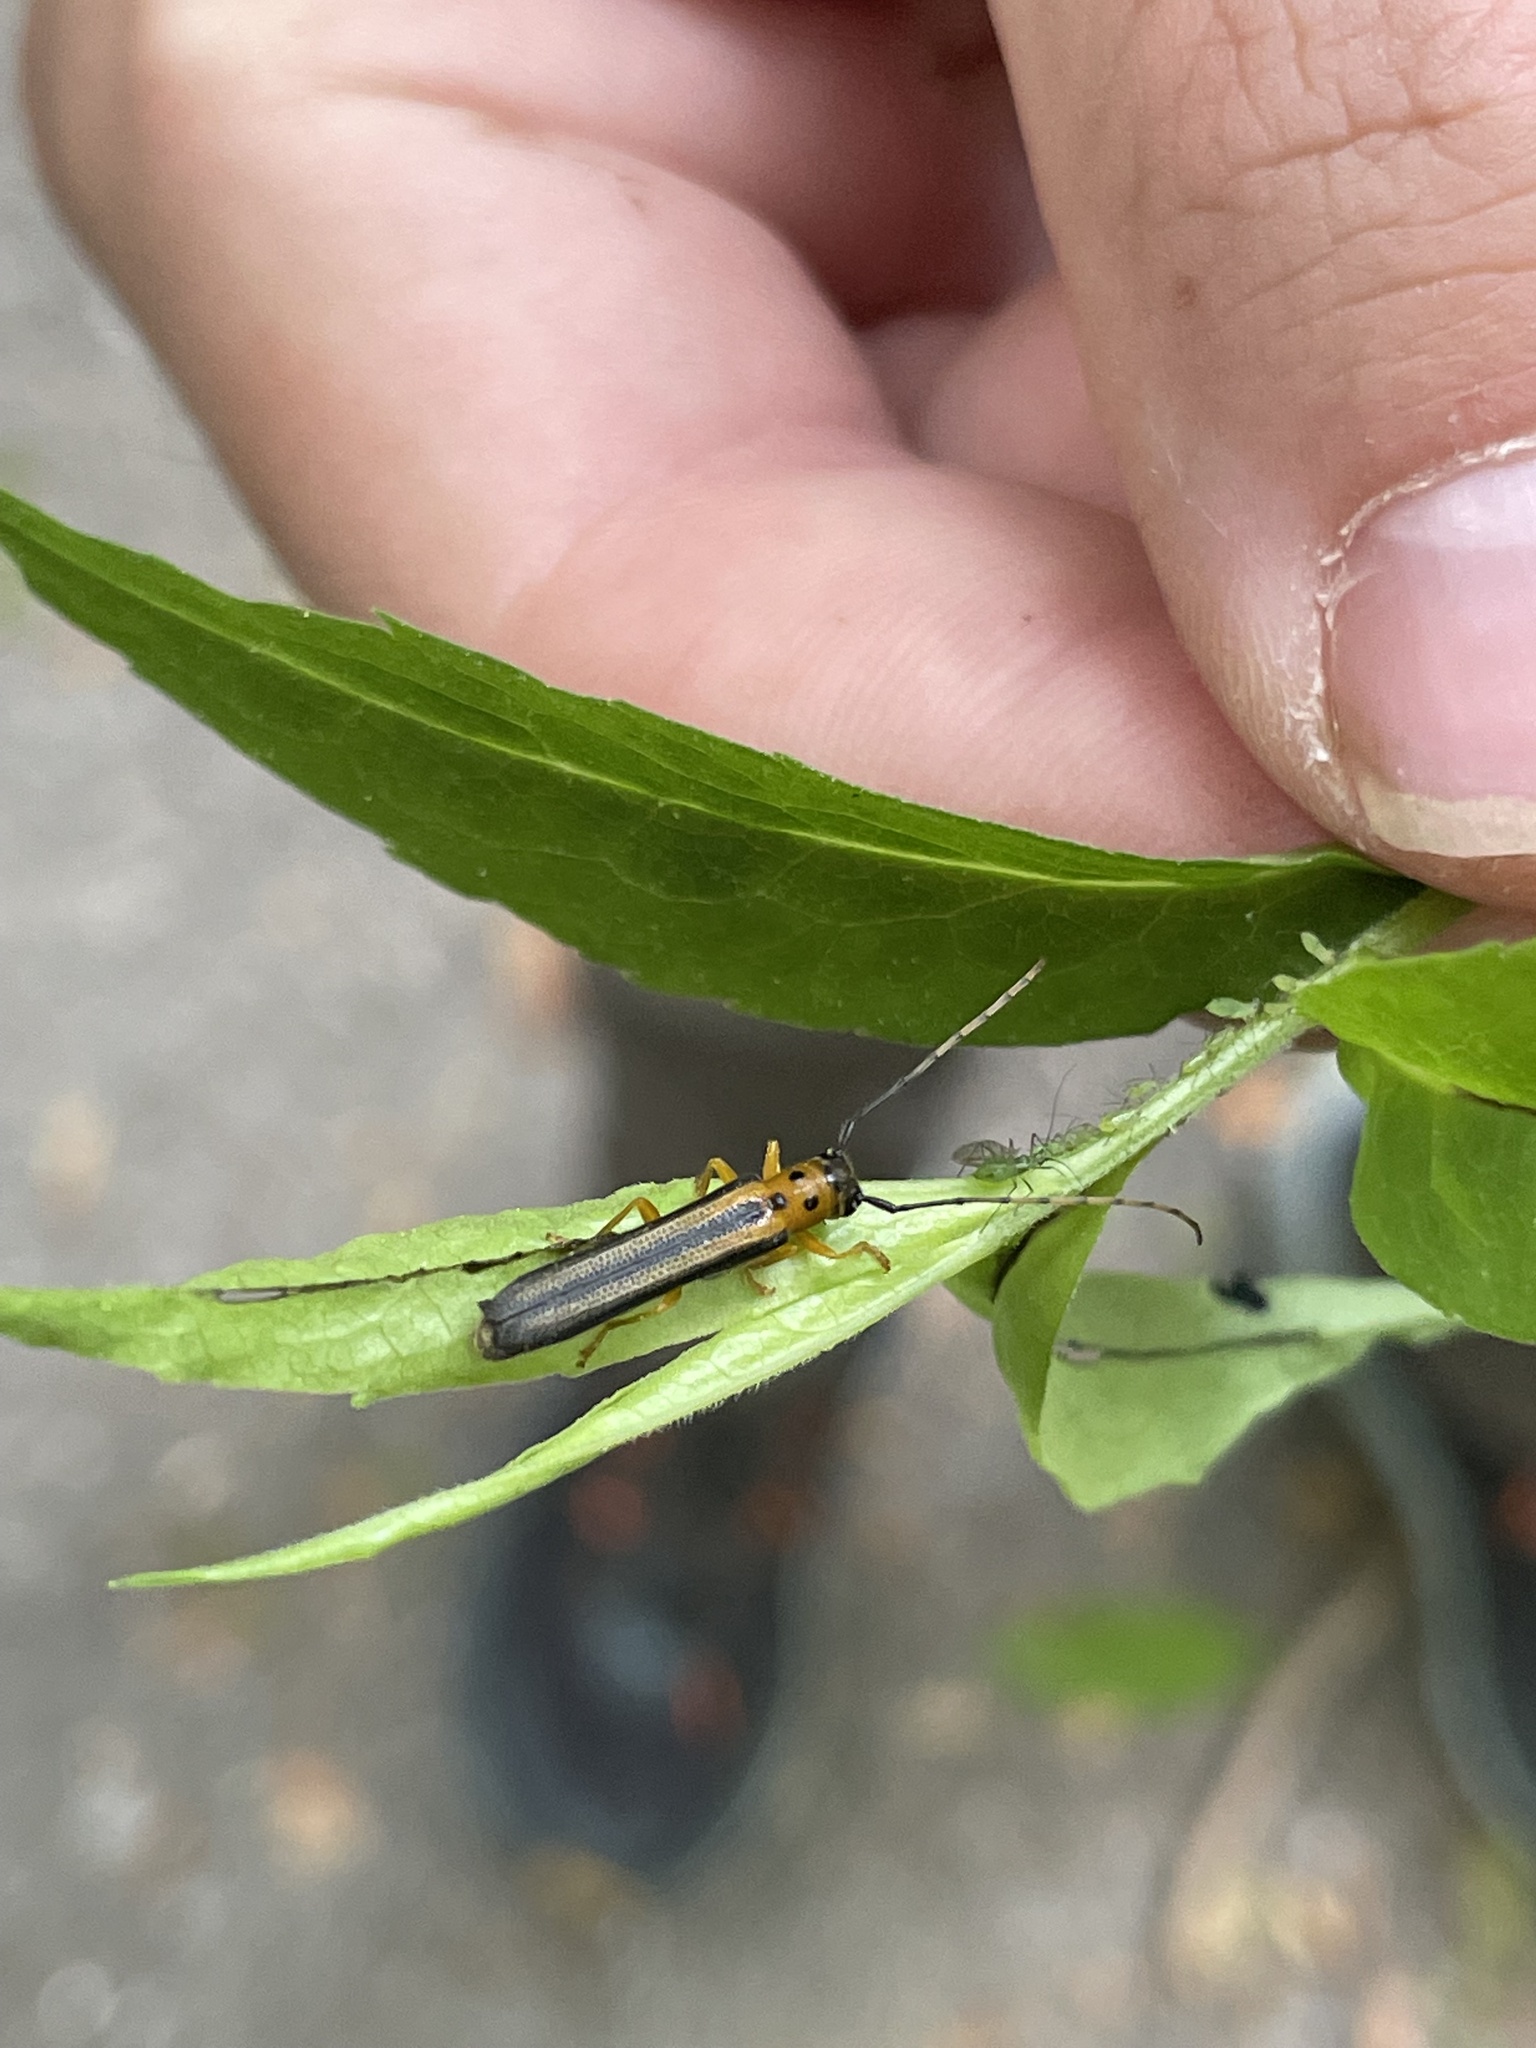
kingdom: Animalia
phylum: Arthropoda
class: Insecta
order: Coleoptera
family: Cerambycidae
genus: Oberea
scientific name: Oberea tripunctata
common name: Dogwood twig borer
